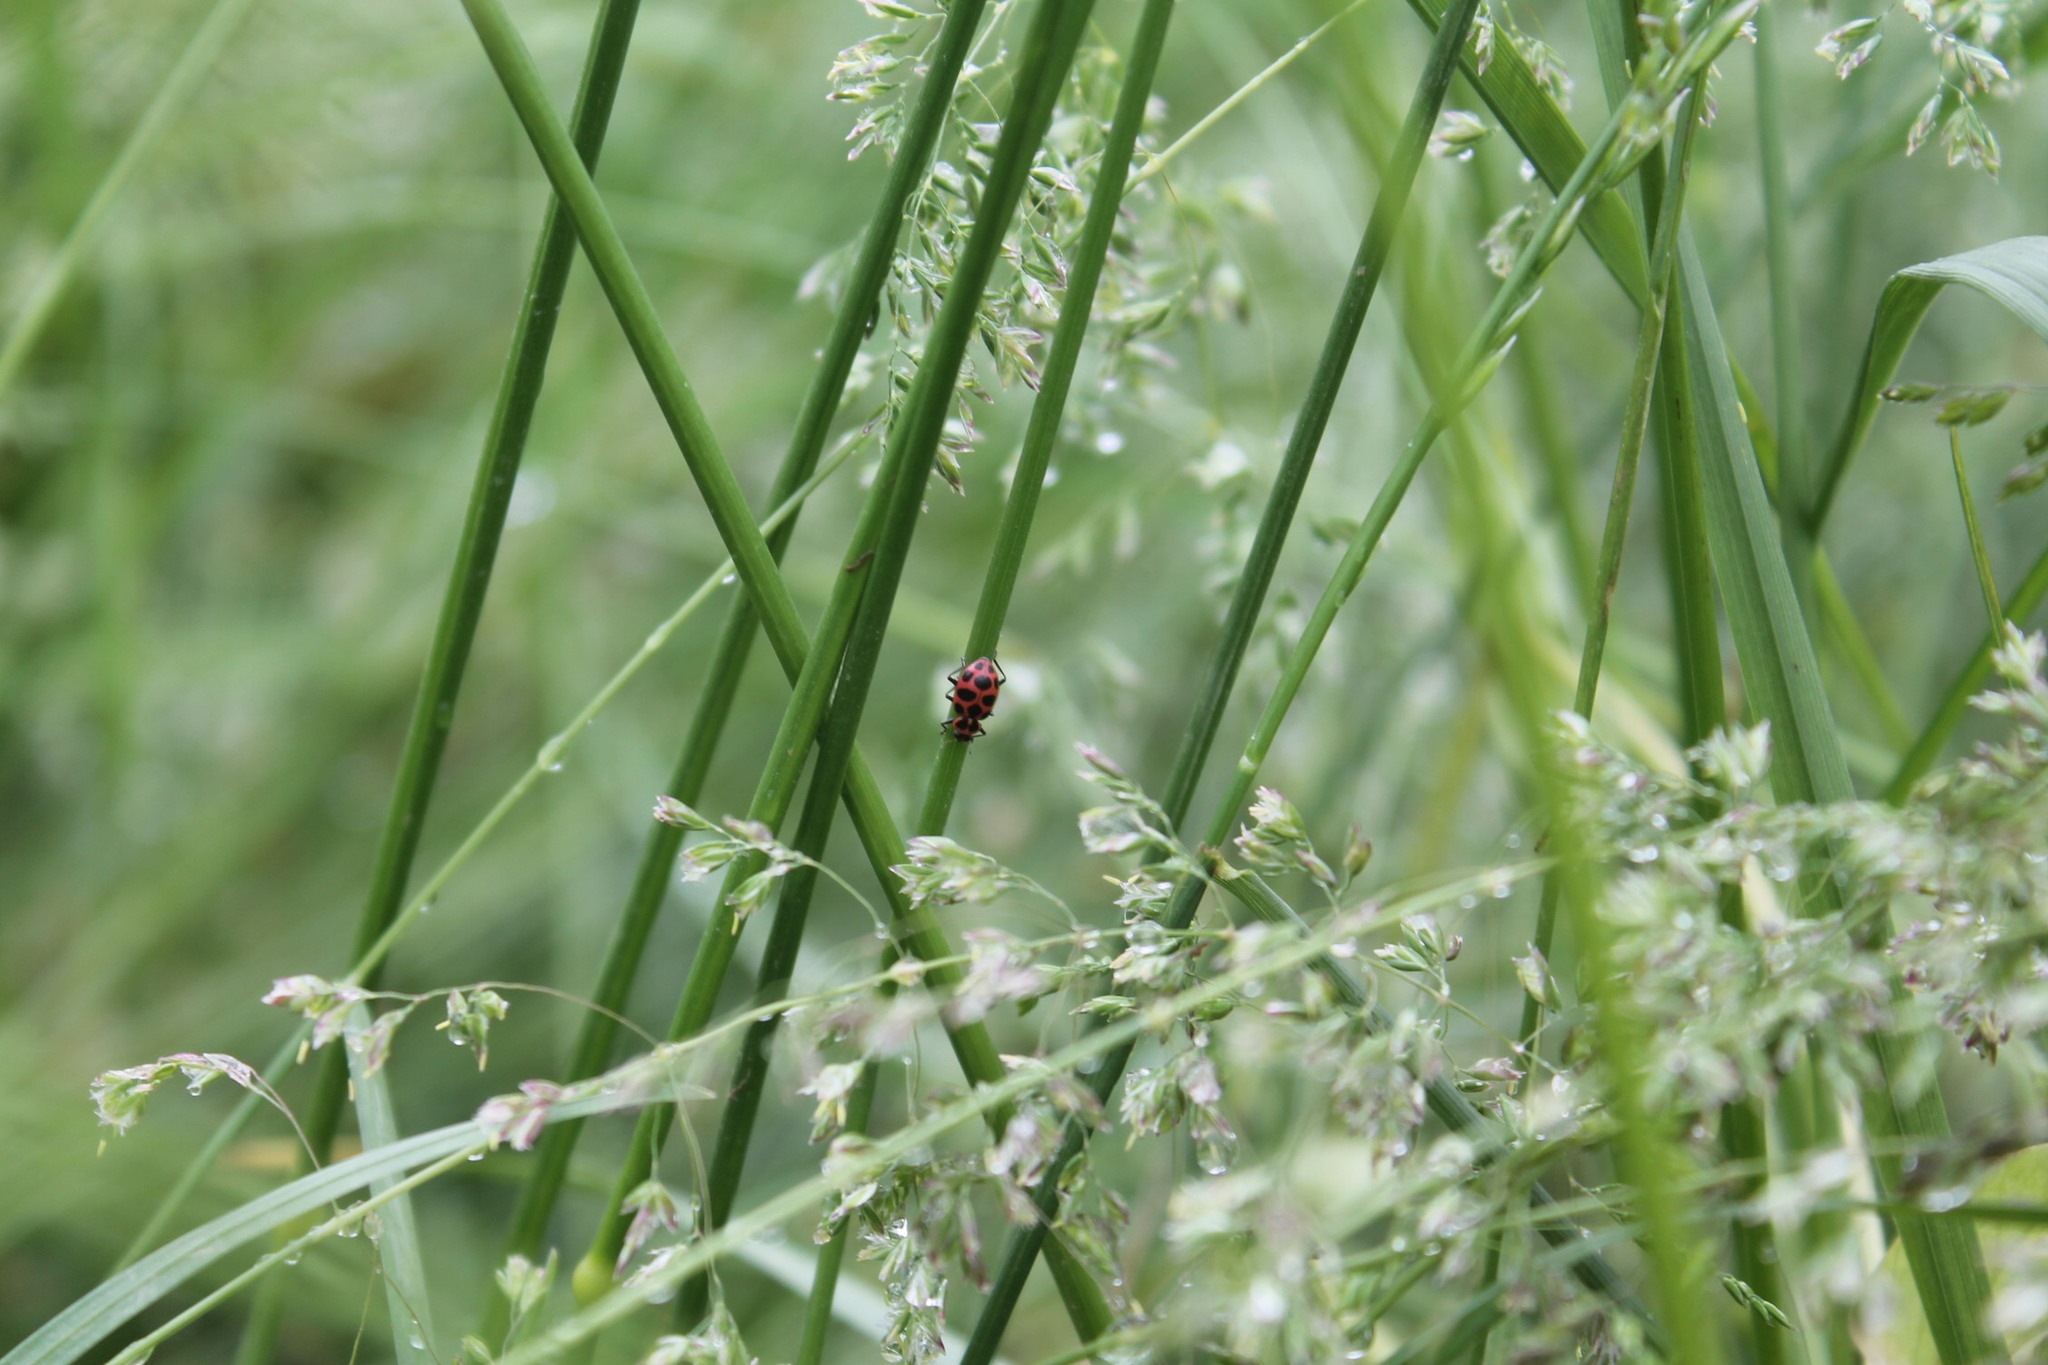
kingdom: Animalia
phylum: Arthropoda
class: Insecta
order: Coleoptera
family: Coccinellidae
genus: Coleomegilla
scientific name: Coleomegilla maculata
